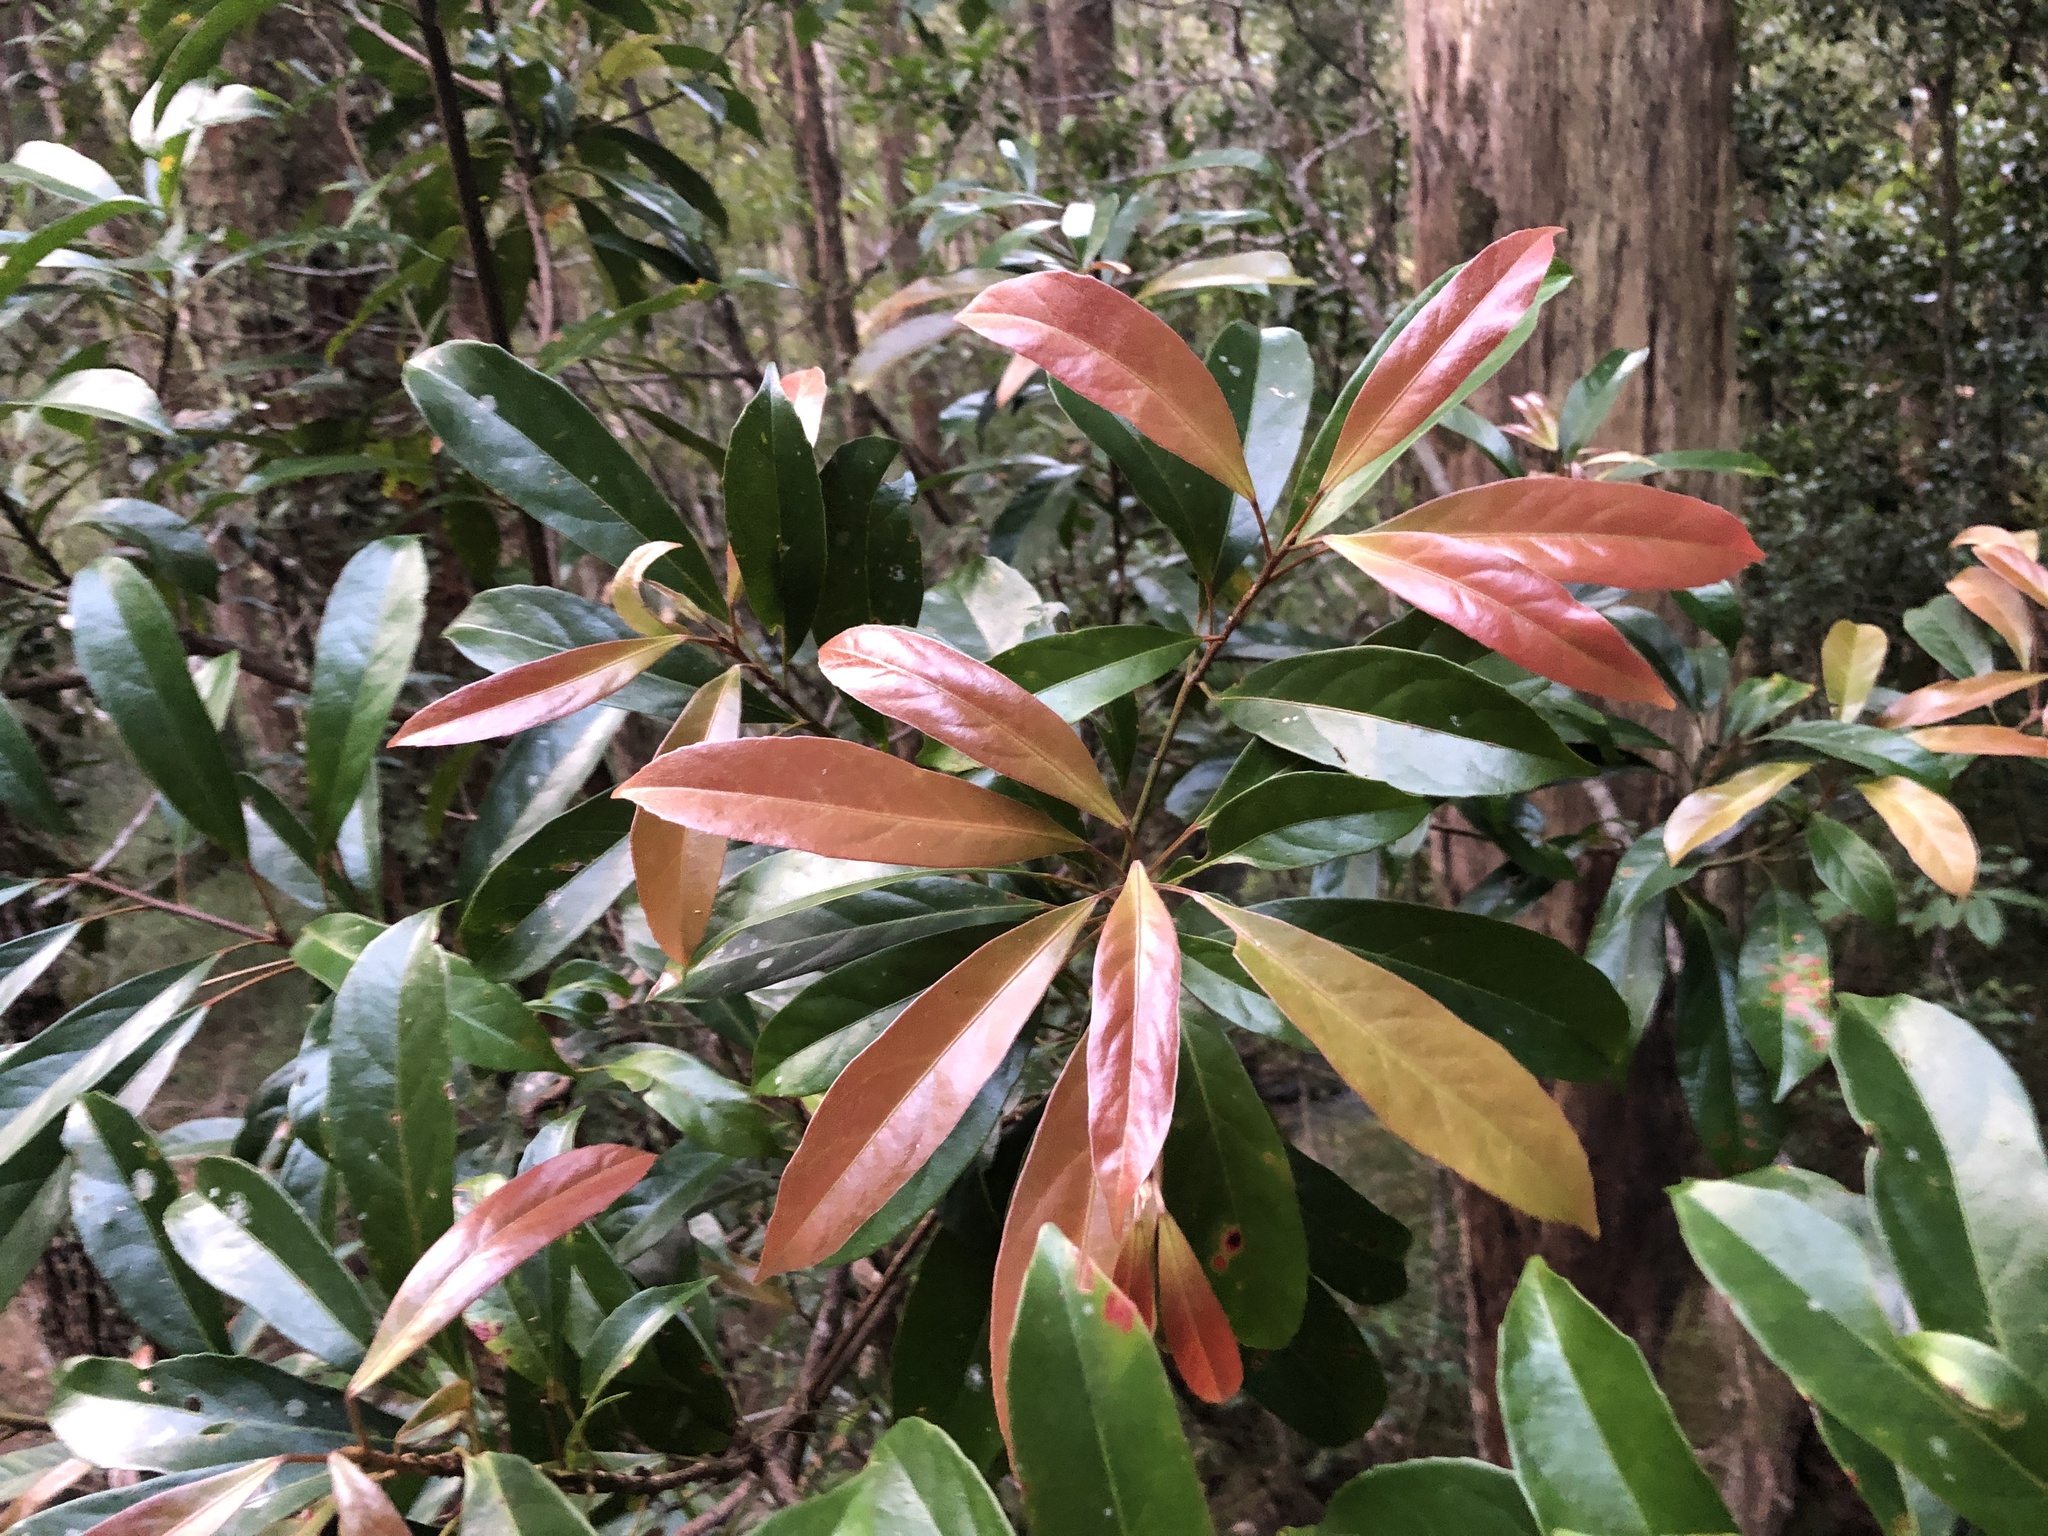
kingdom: Plantae
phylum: Tracheophyta
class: Magnoliopsida
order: Oxalidales
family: Elaeocarpaceae
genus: Elaeocarpus
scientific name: Elaeocarpus eumundi
